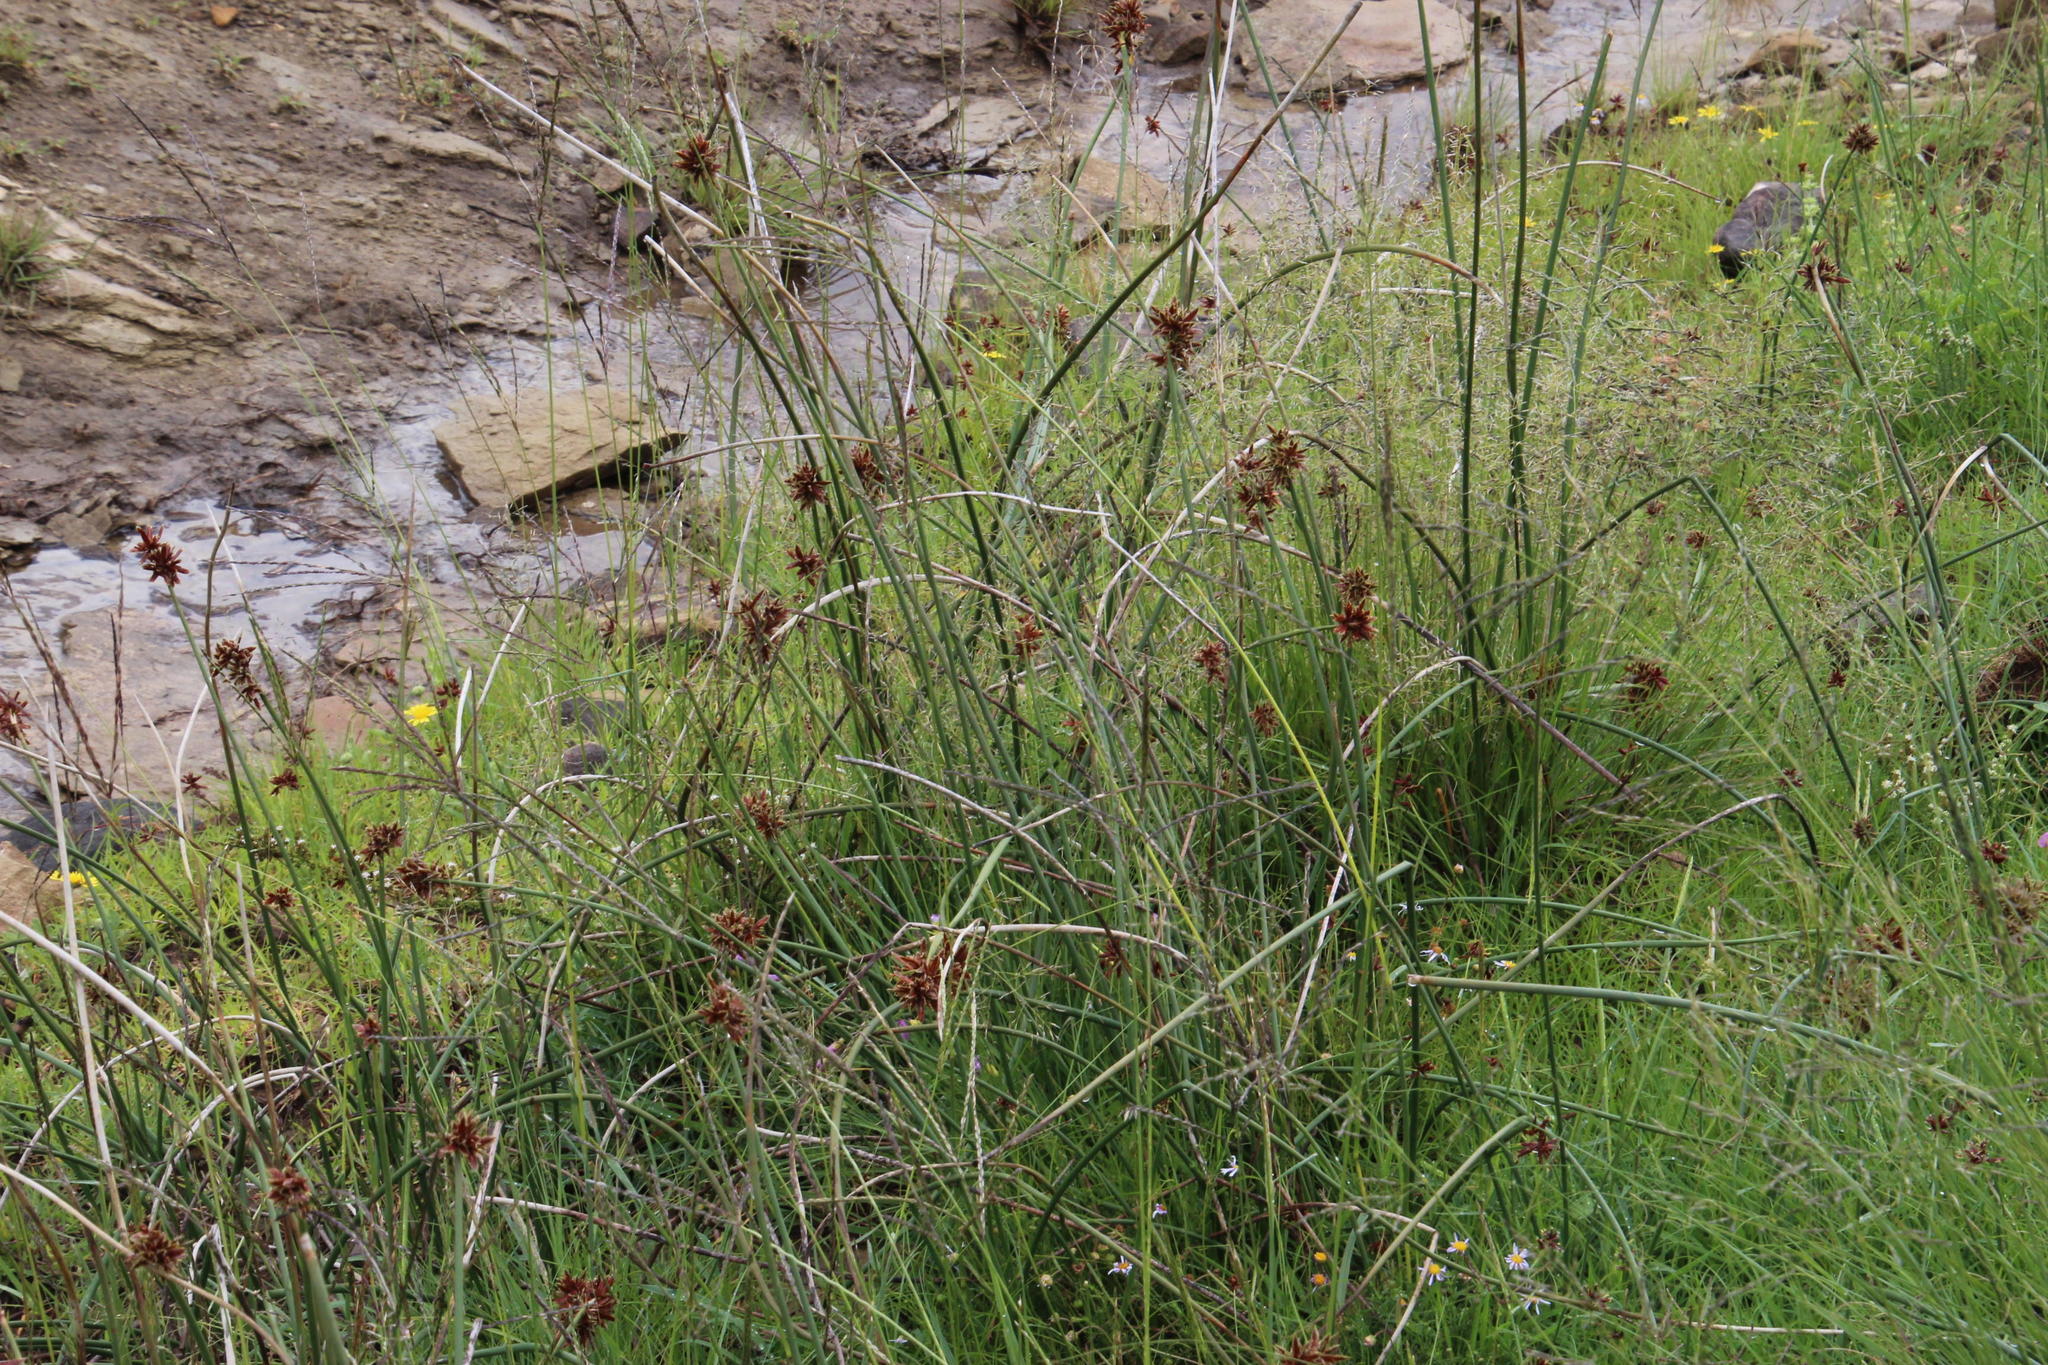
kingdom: Plantae
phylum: Tracheophyta
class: Liliopsida
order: Poales
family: Cyperaceae
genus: Cyperus
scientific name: Cyperus marginatus
